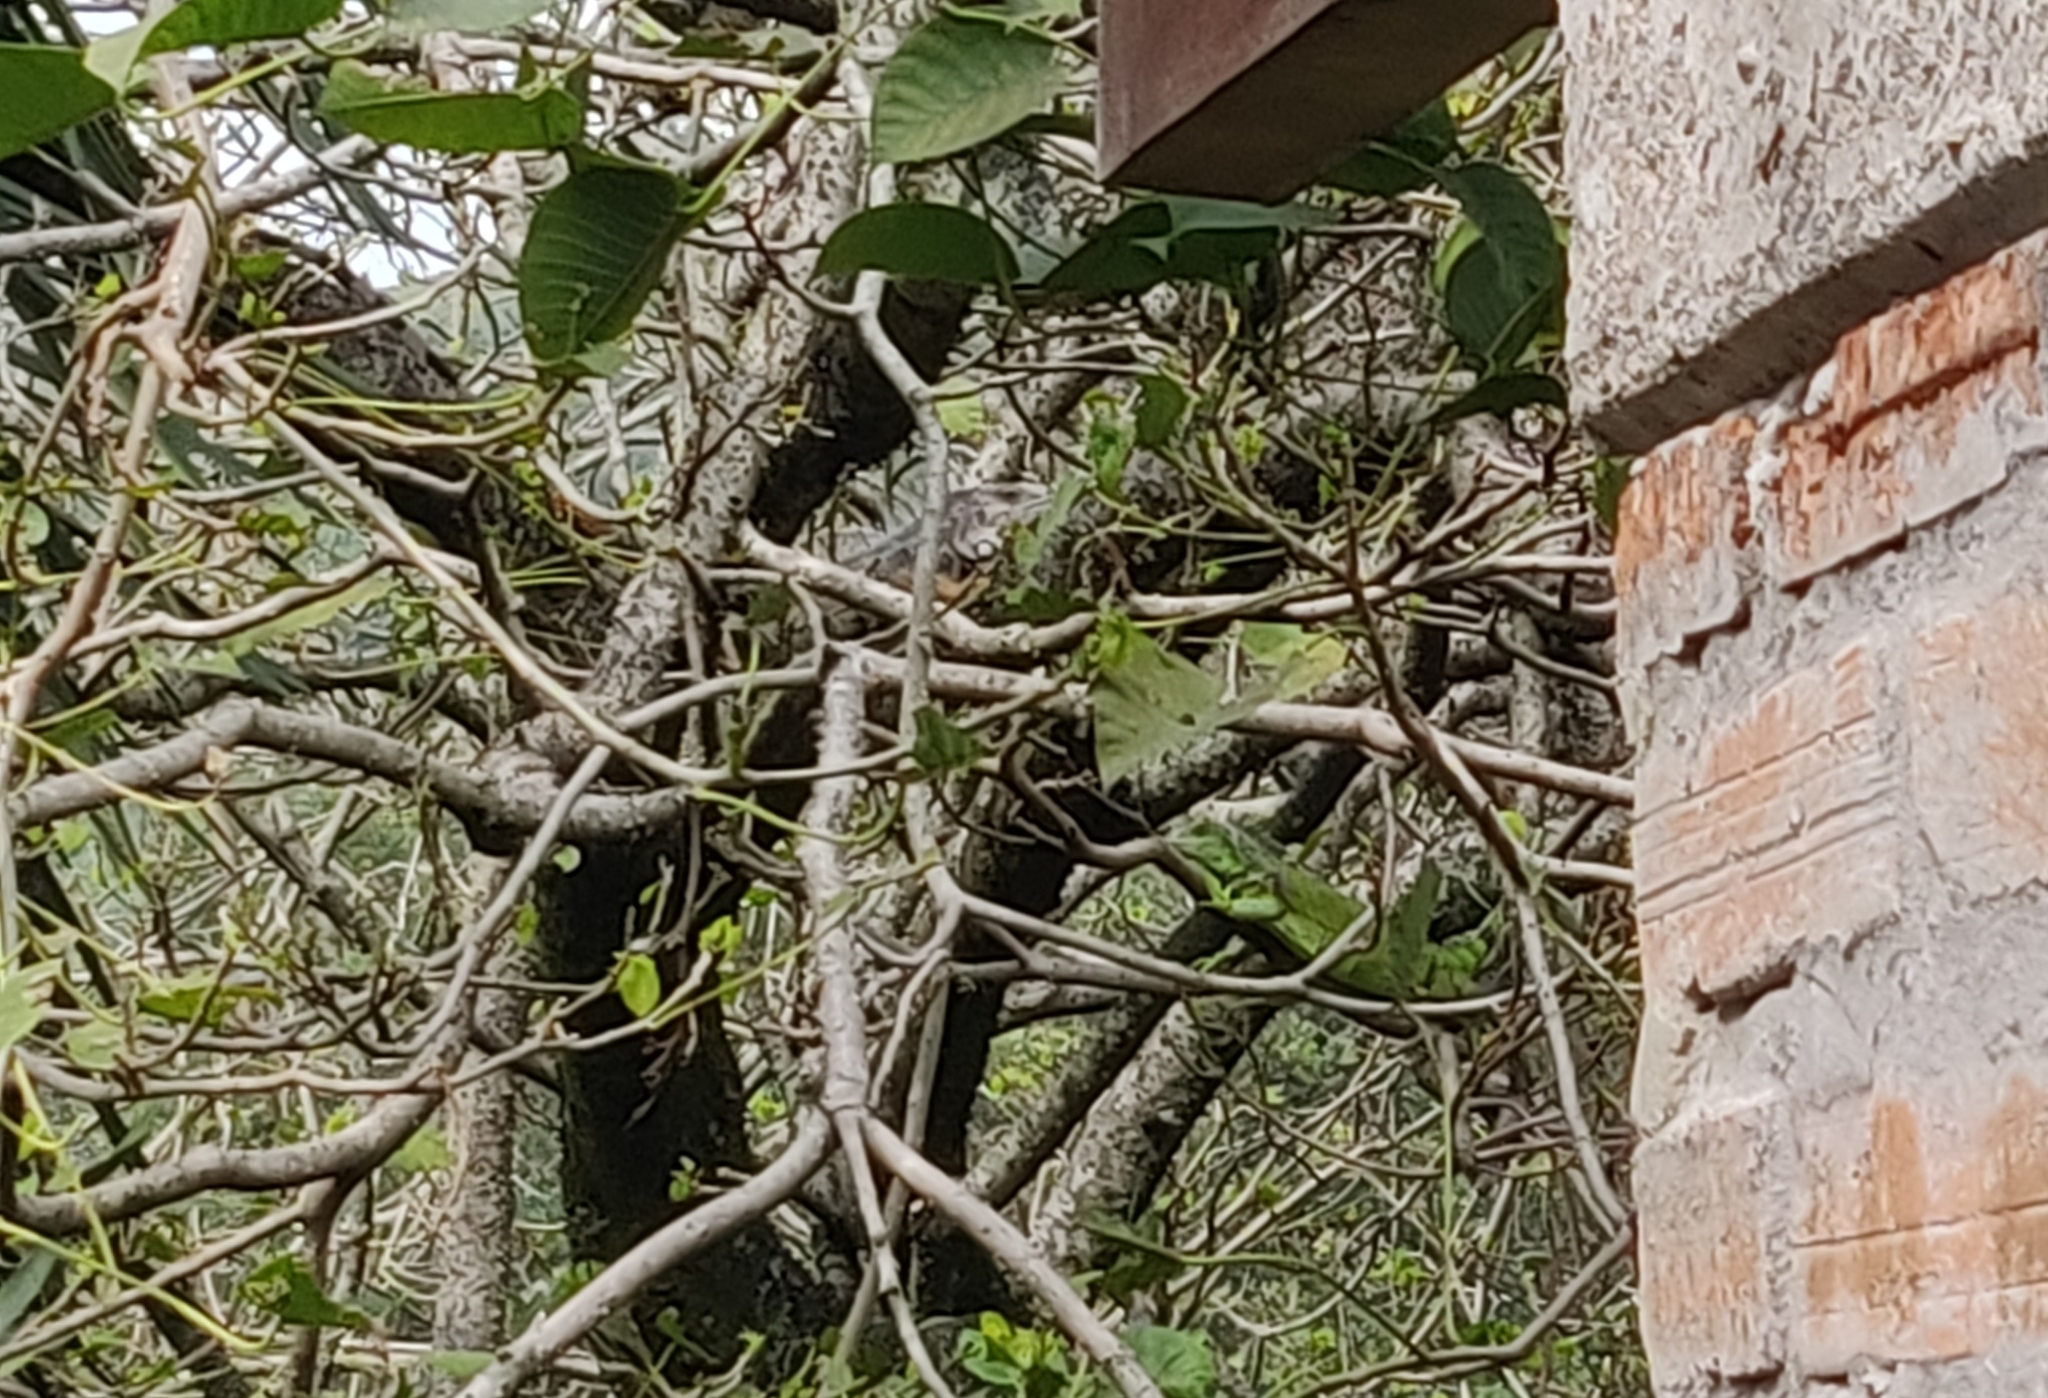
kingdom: Animalia
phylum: Chordata
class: Squamata
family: Iguanidae
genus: Iguana
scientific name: Iguana iguana
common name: Green iguana
